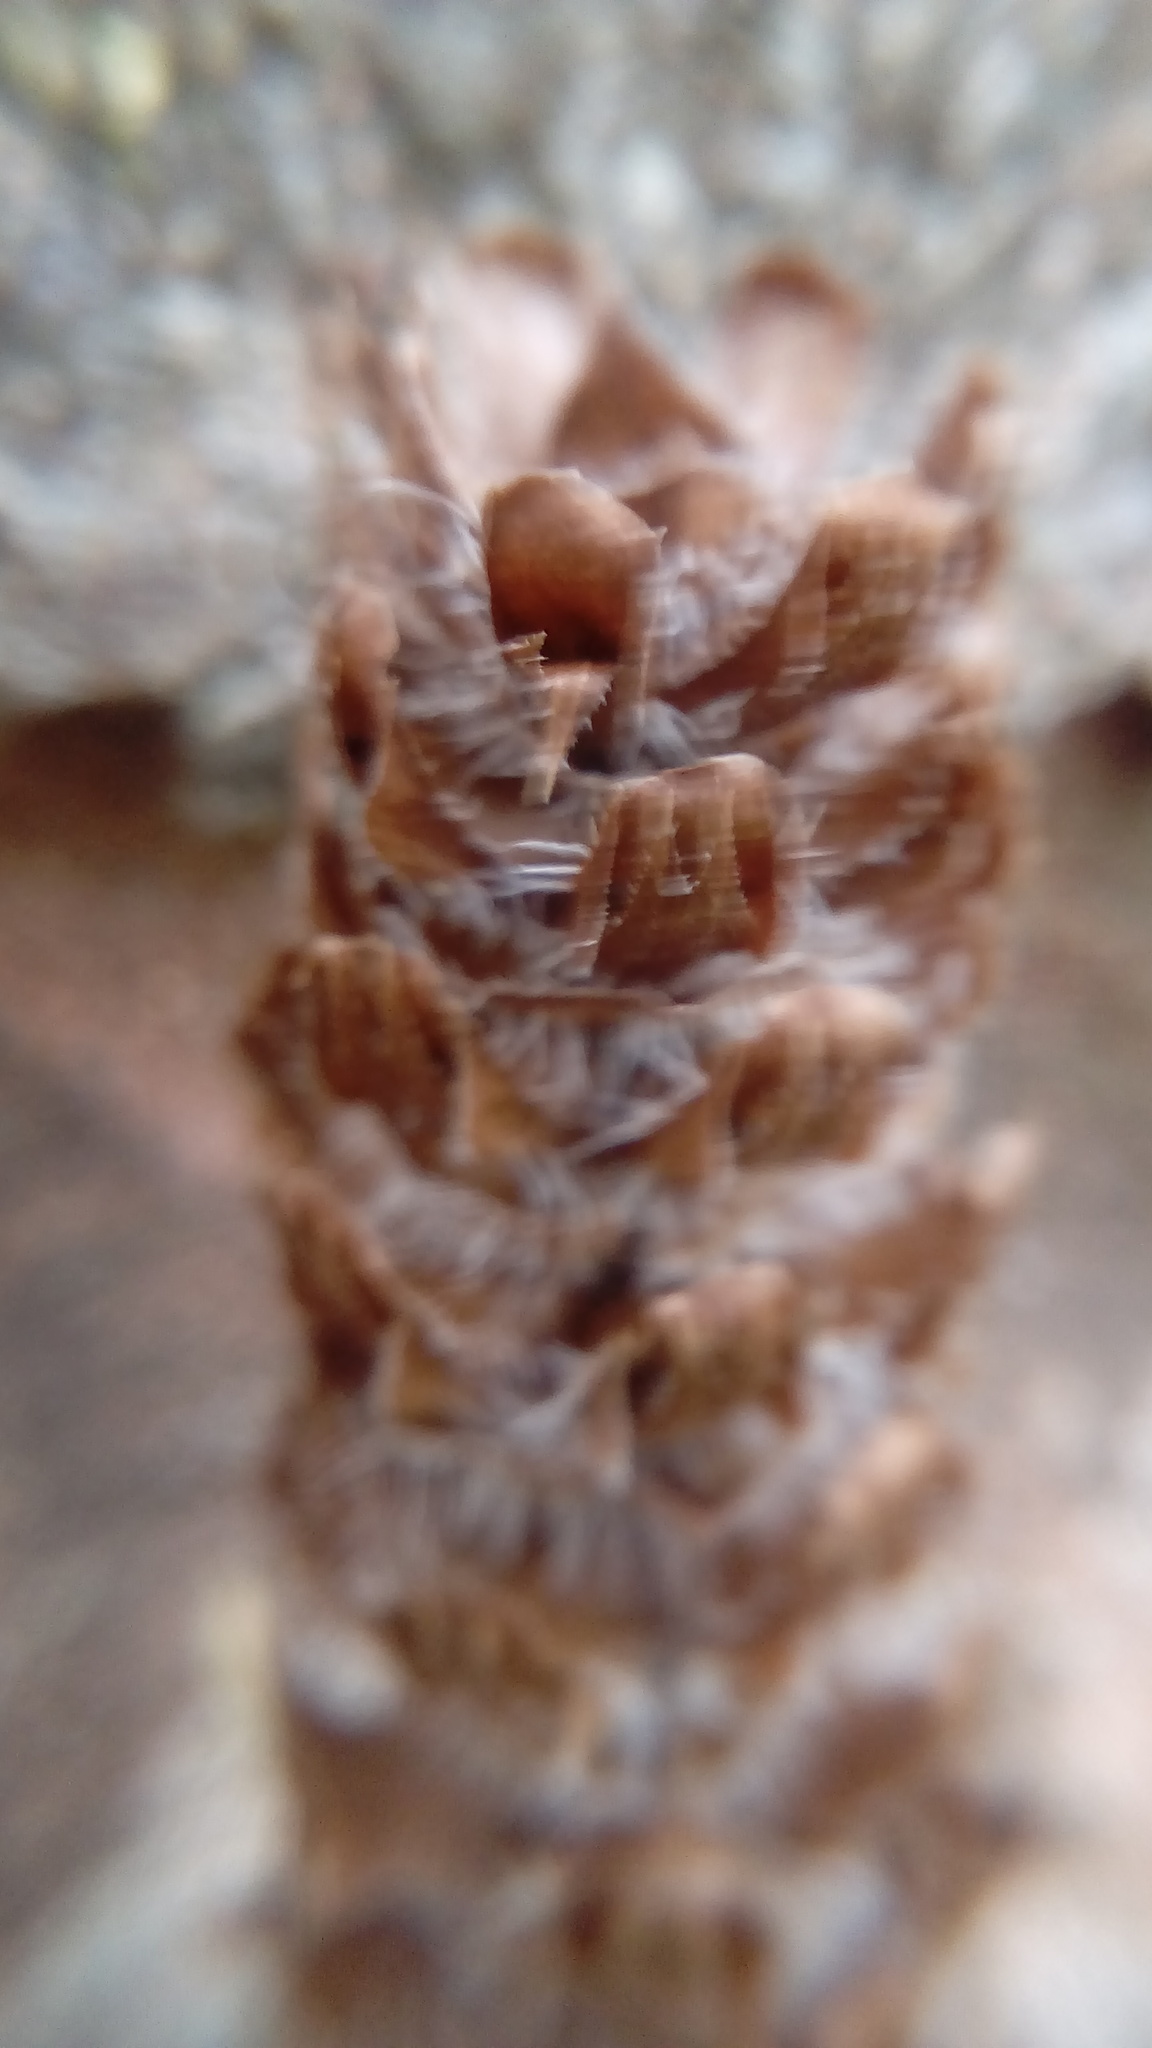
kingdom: Plantae
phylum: Tracheophyta
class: Magnoliopsida
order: Lamiales
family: Lamiaceae
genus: Prunella
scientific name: Prunella vulgaris
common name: Heal-all
